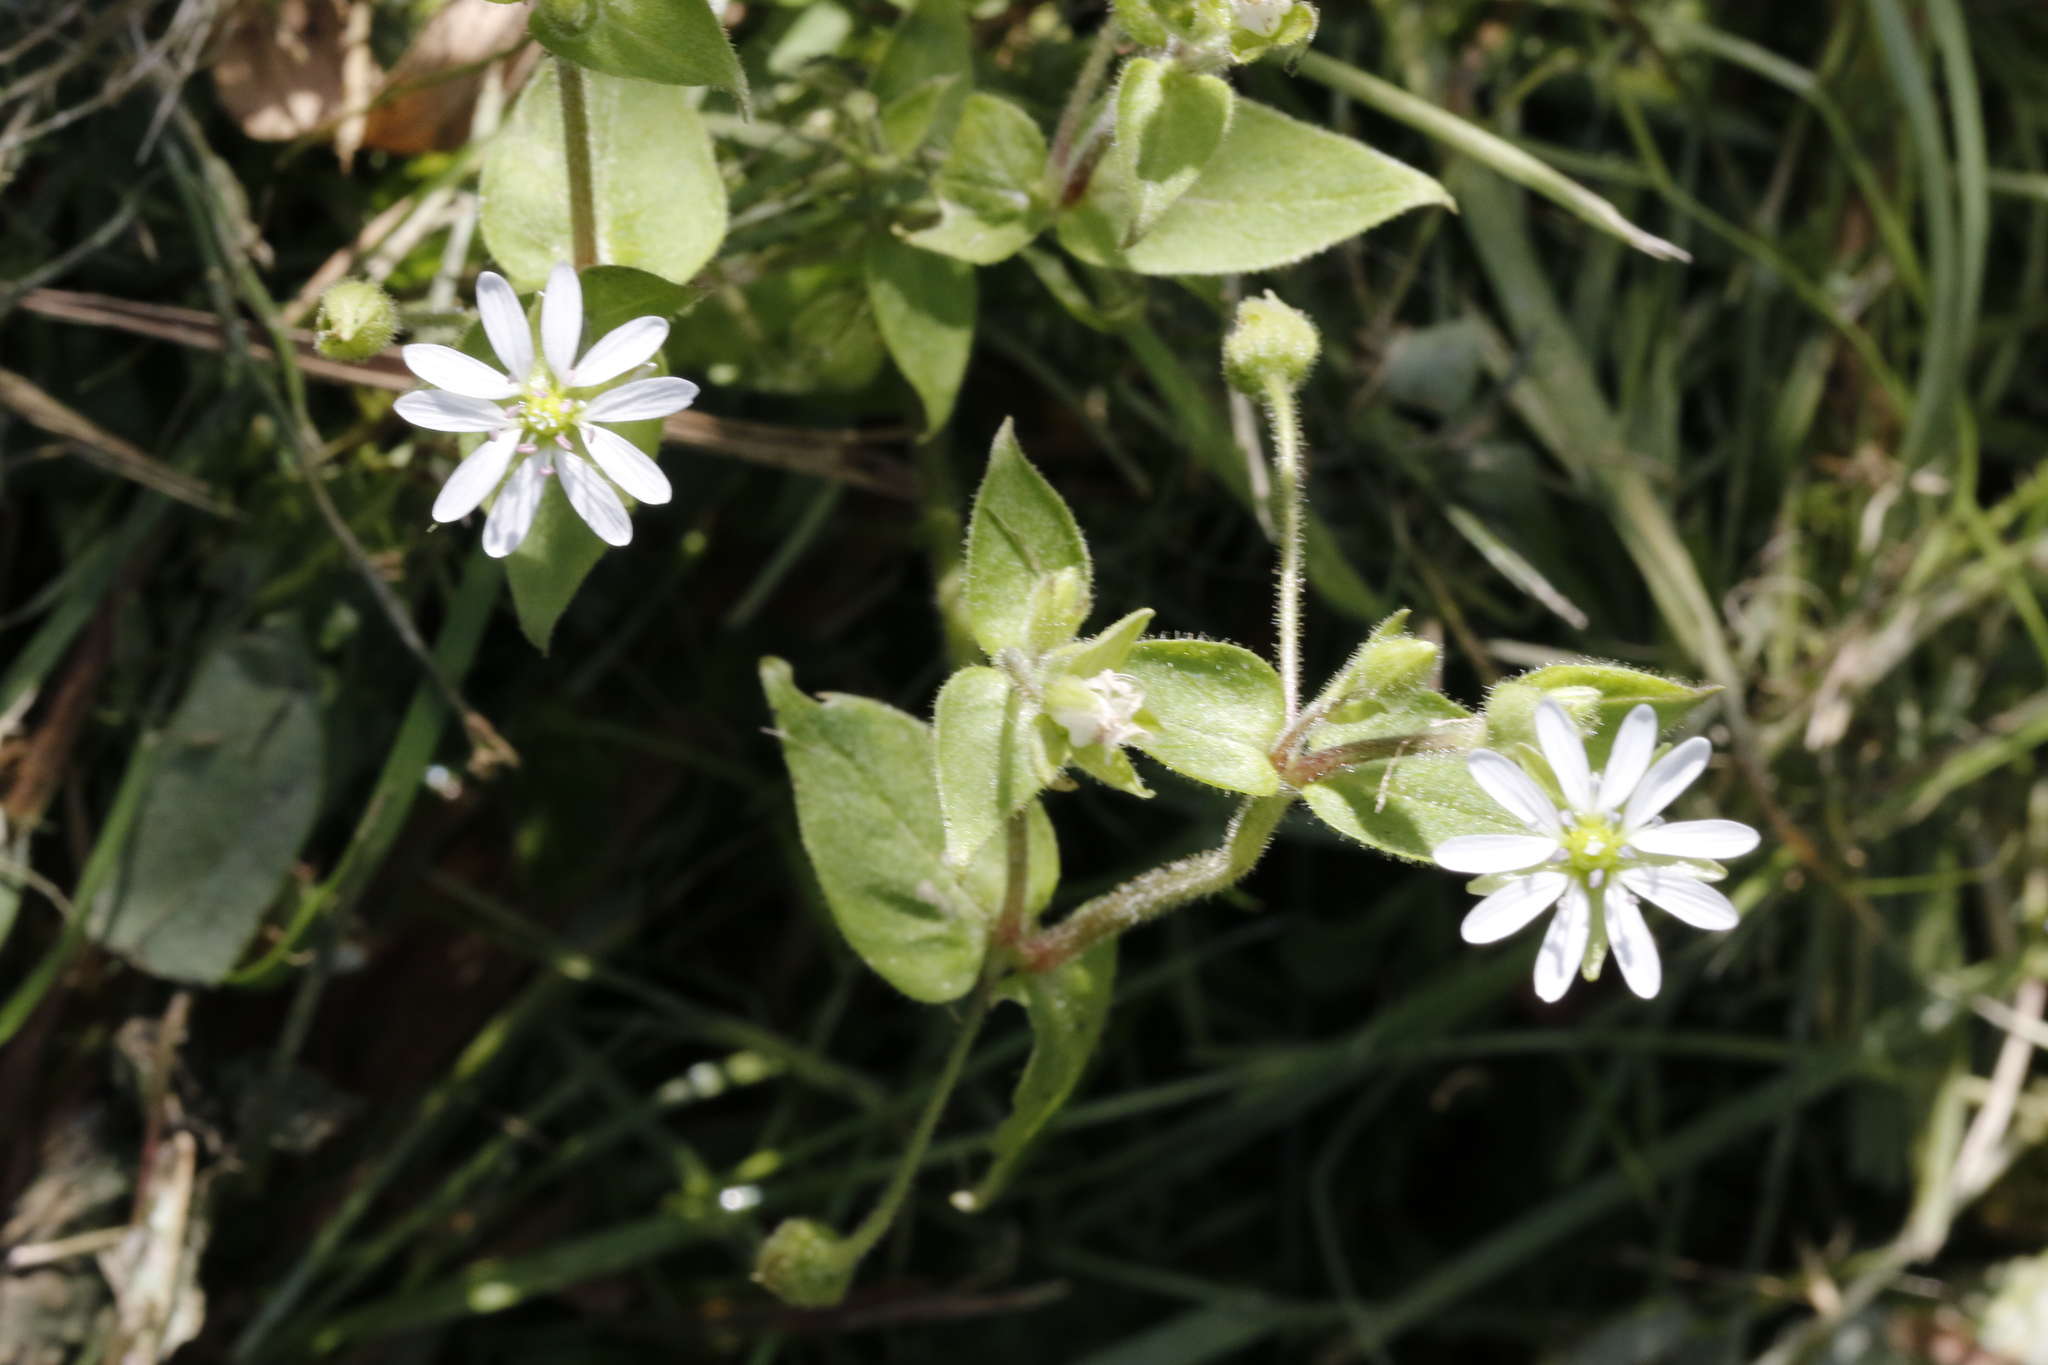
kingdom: Plantae
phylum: Tracheophyta
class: Magnoliopsida
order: Caryophyllales
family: Caryophyllaceae
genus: Stellaria
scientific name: Stellaria aquatica
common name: Water chickweed
